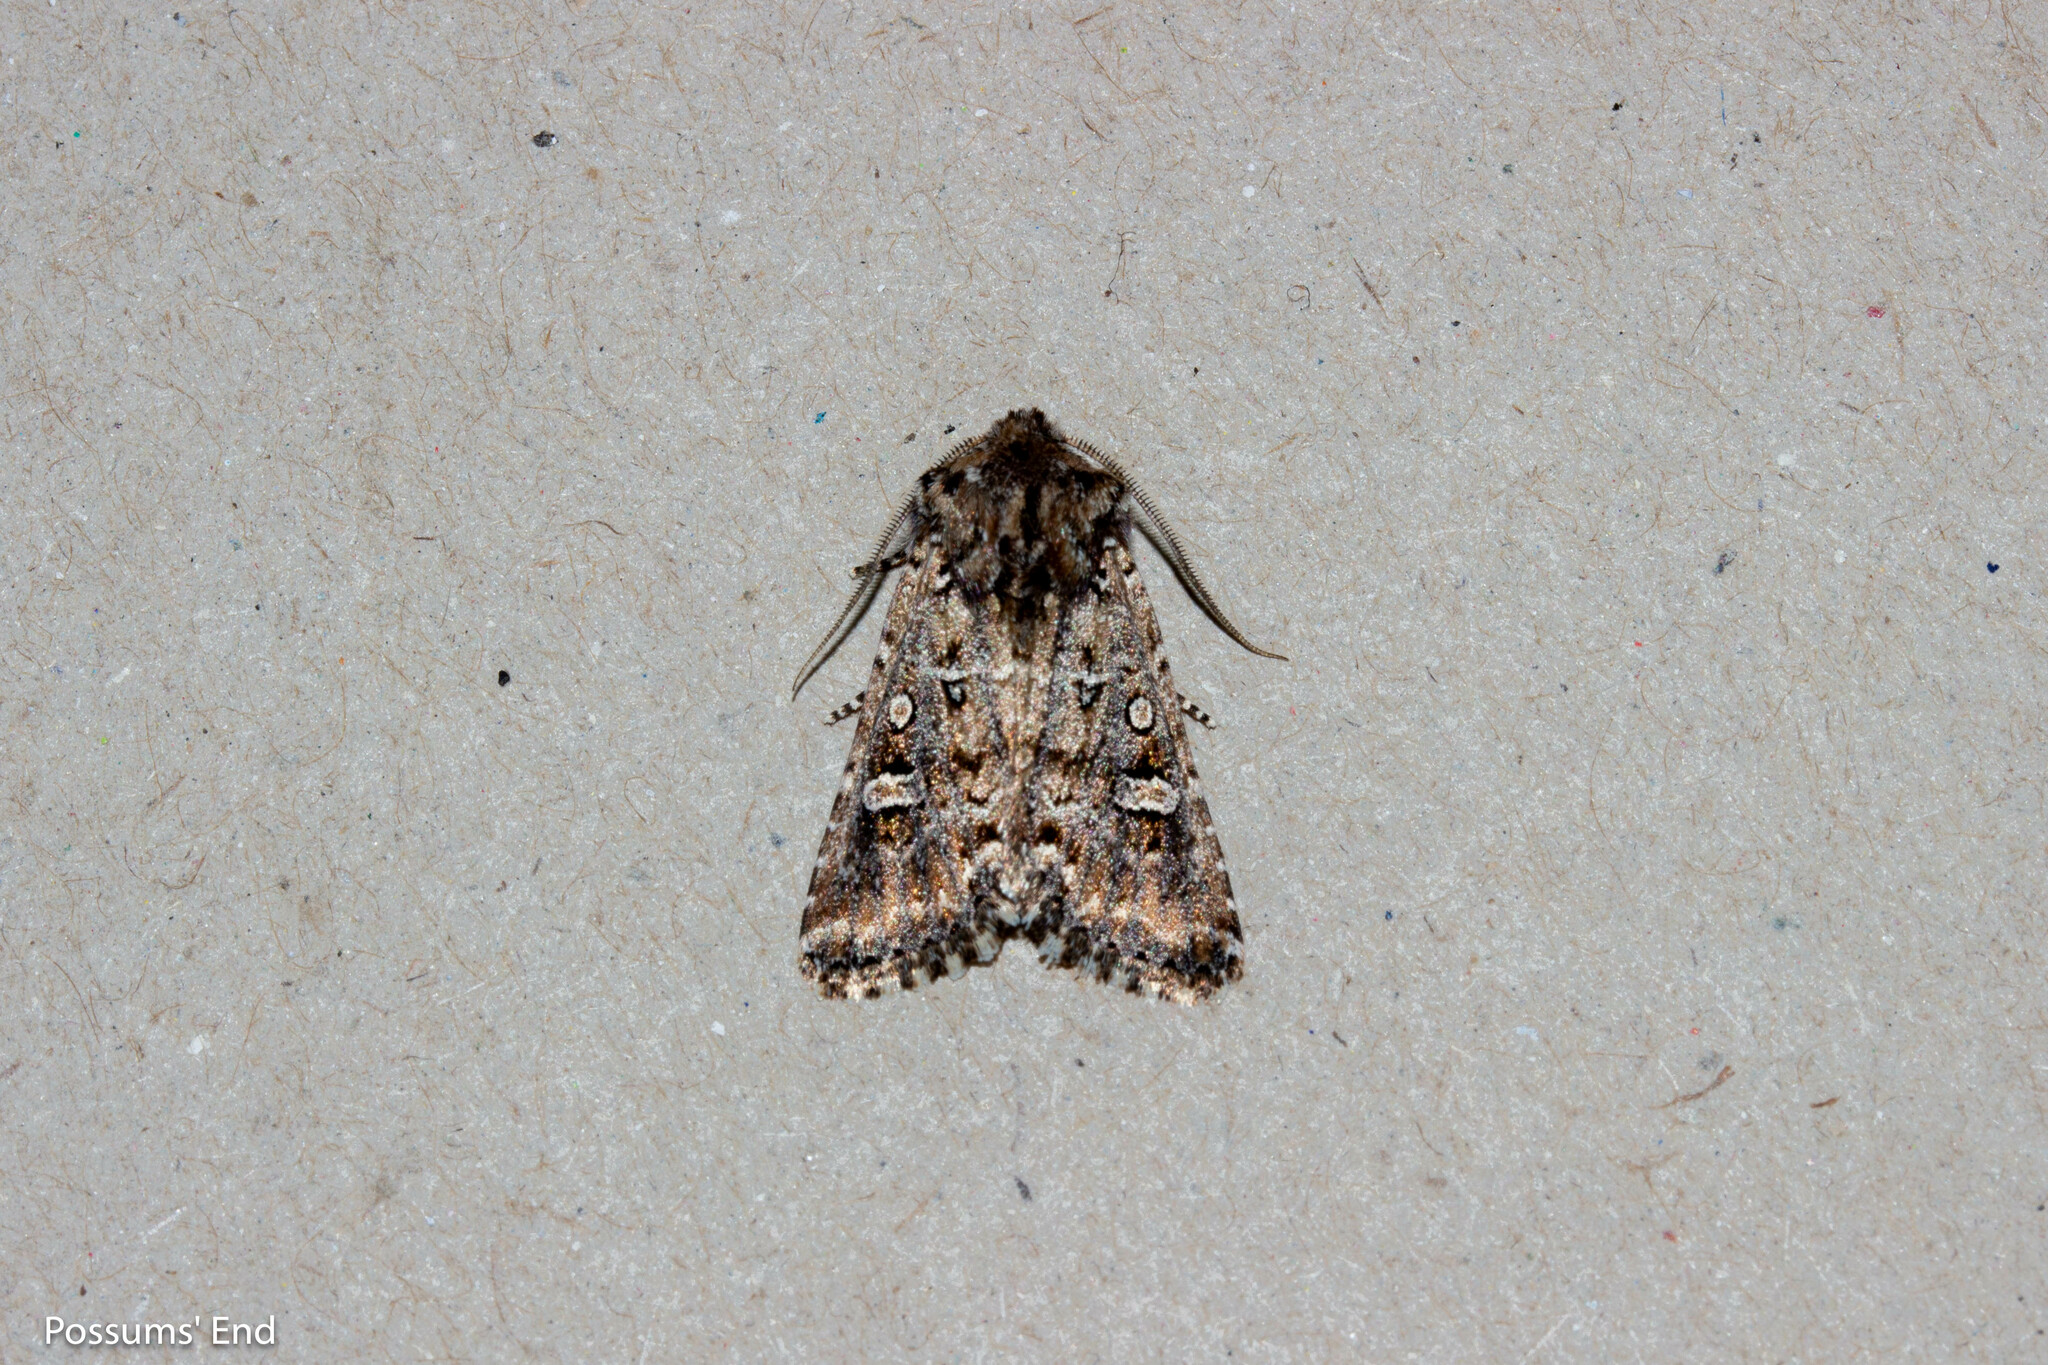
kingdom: Animalia
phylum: Arthropoda
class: Insecta
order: Lepidoptera
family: Noctuidae
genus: Ichneutica
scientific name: Ichneutica lithias
